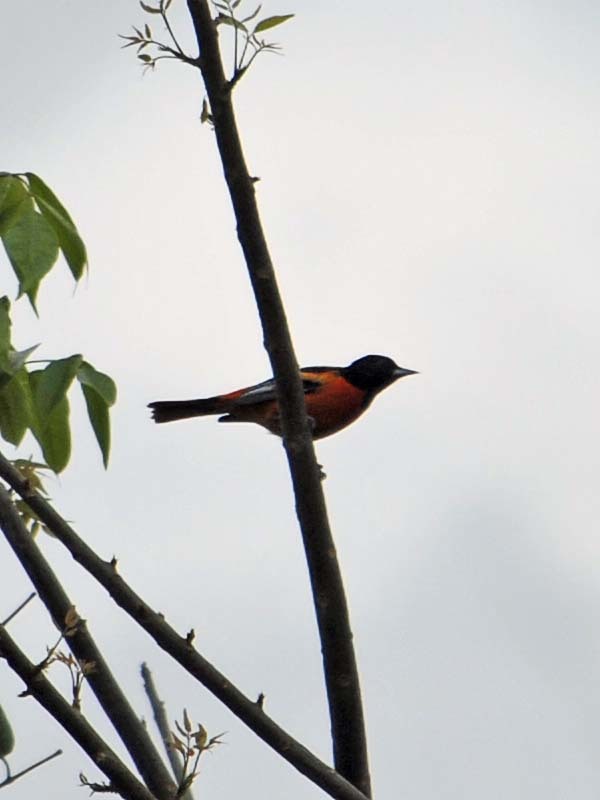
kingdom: Animalia
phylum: Chordata
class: Aves
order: Passeriformes
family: Icteridae
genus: Icterus
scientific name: Icterus galbula
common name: Baltimore oriole
